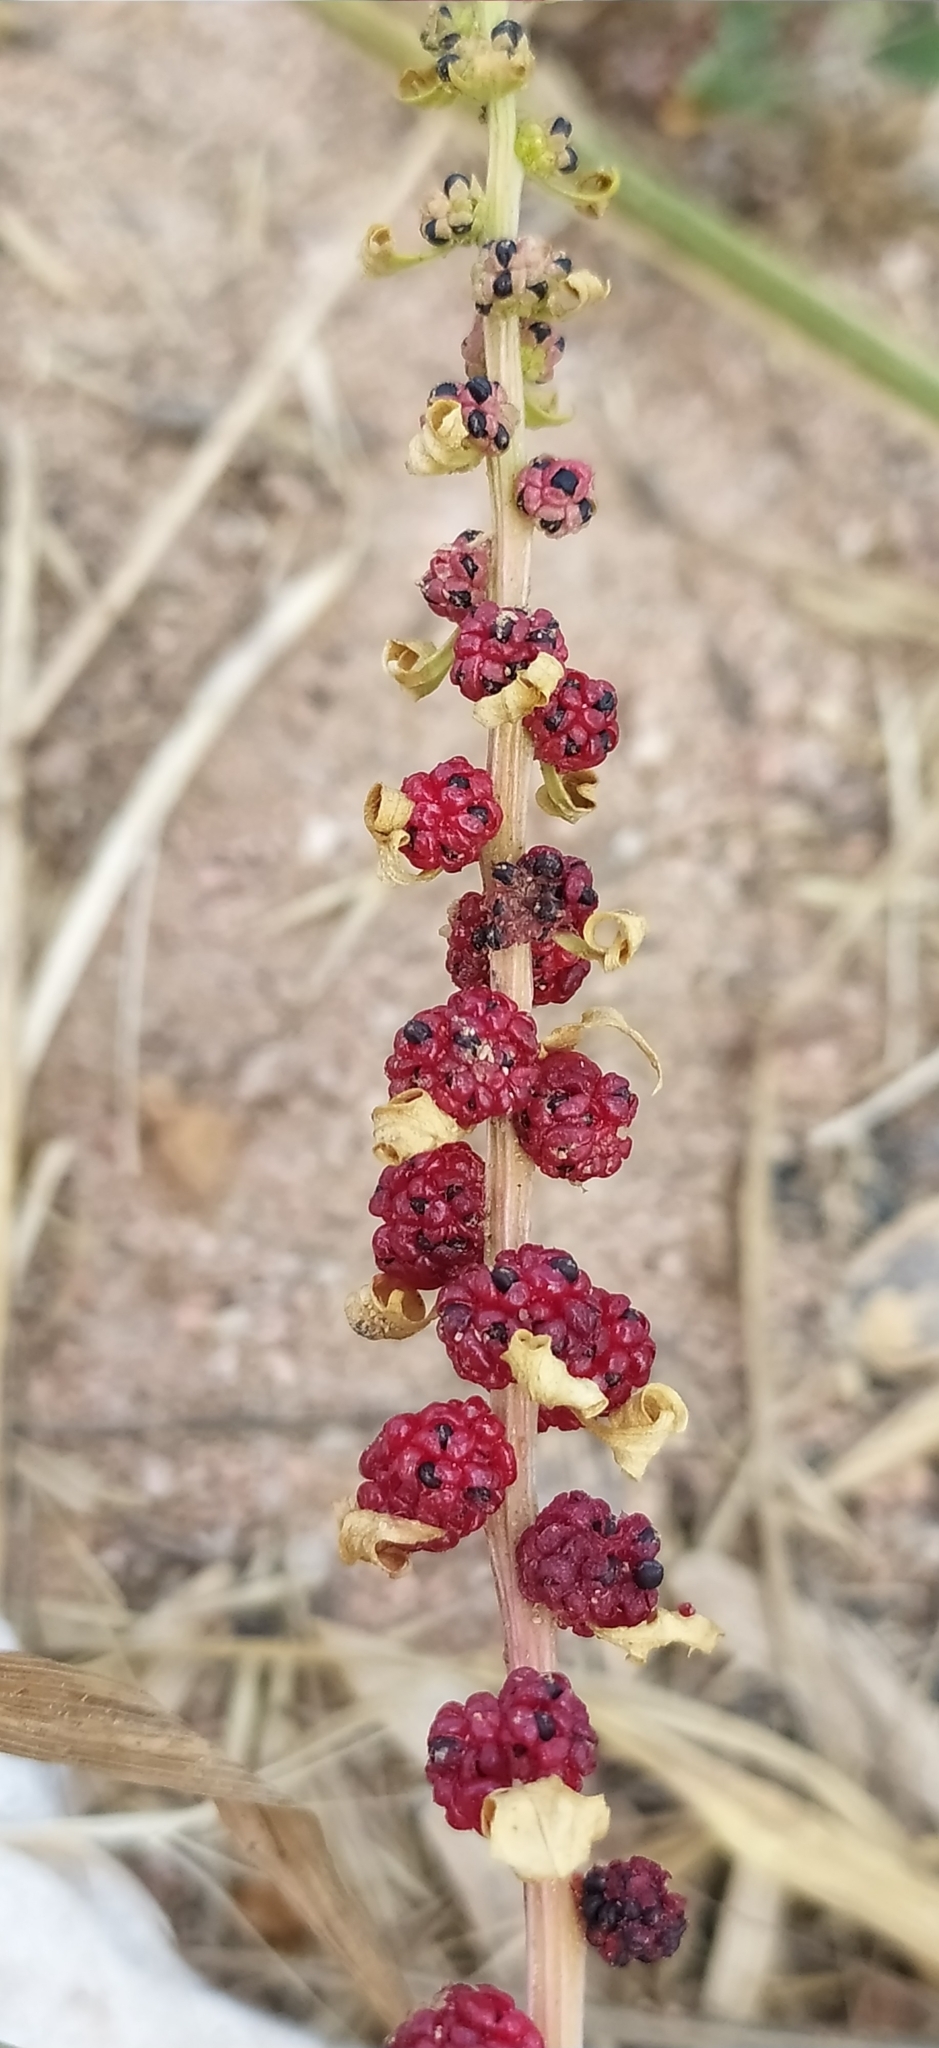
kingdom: Plantae
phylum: Tracheophyta
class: Magnoliopsida
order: Caryophyllales
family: Amaranthaceae
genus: Blitum
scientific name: Blitum virgatum
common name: Strawberry goosefoot
